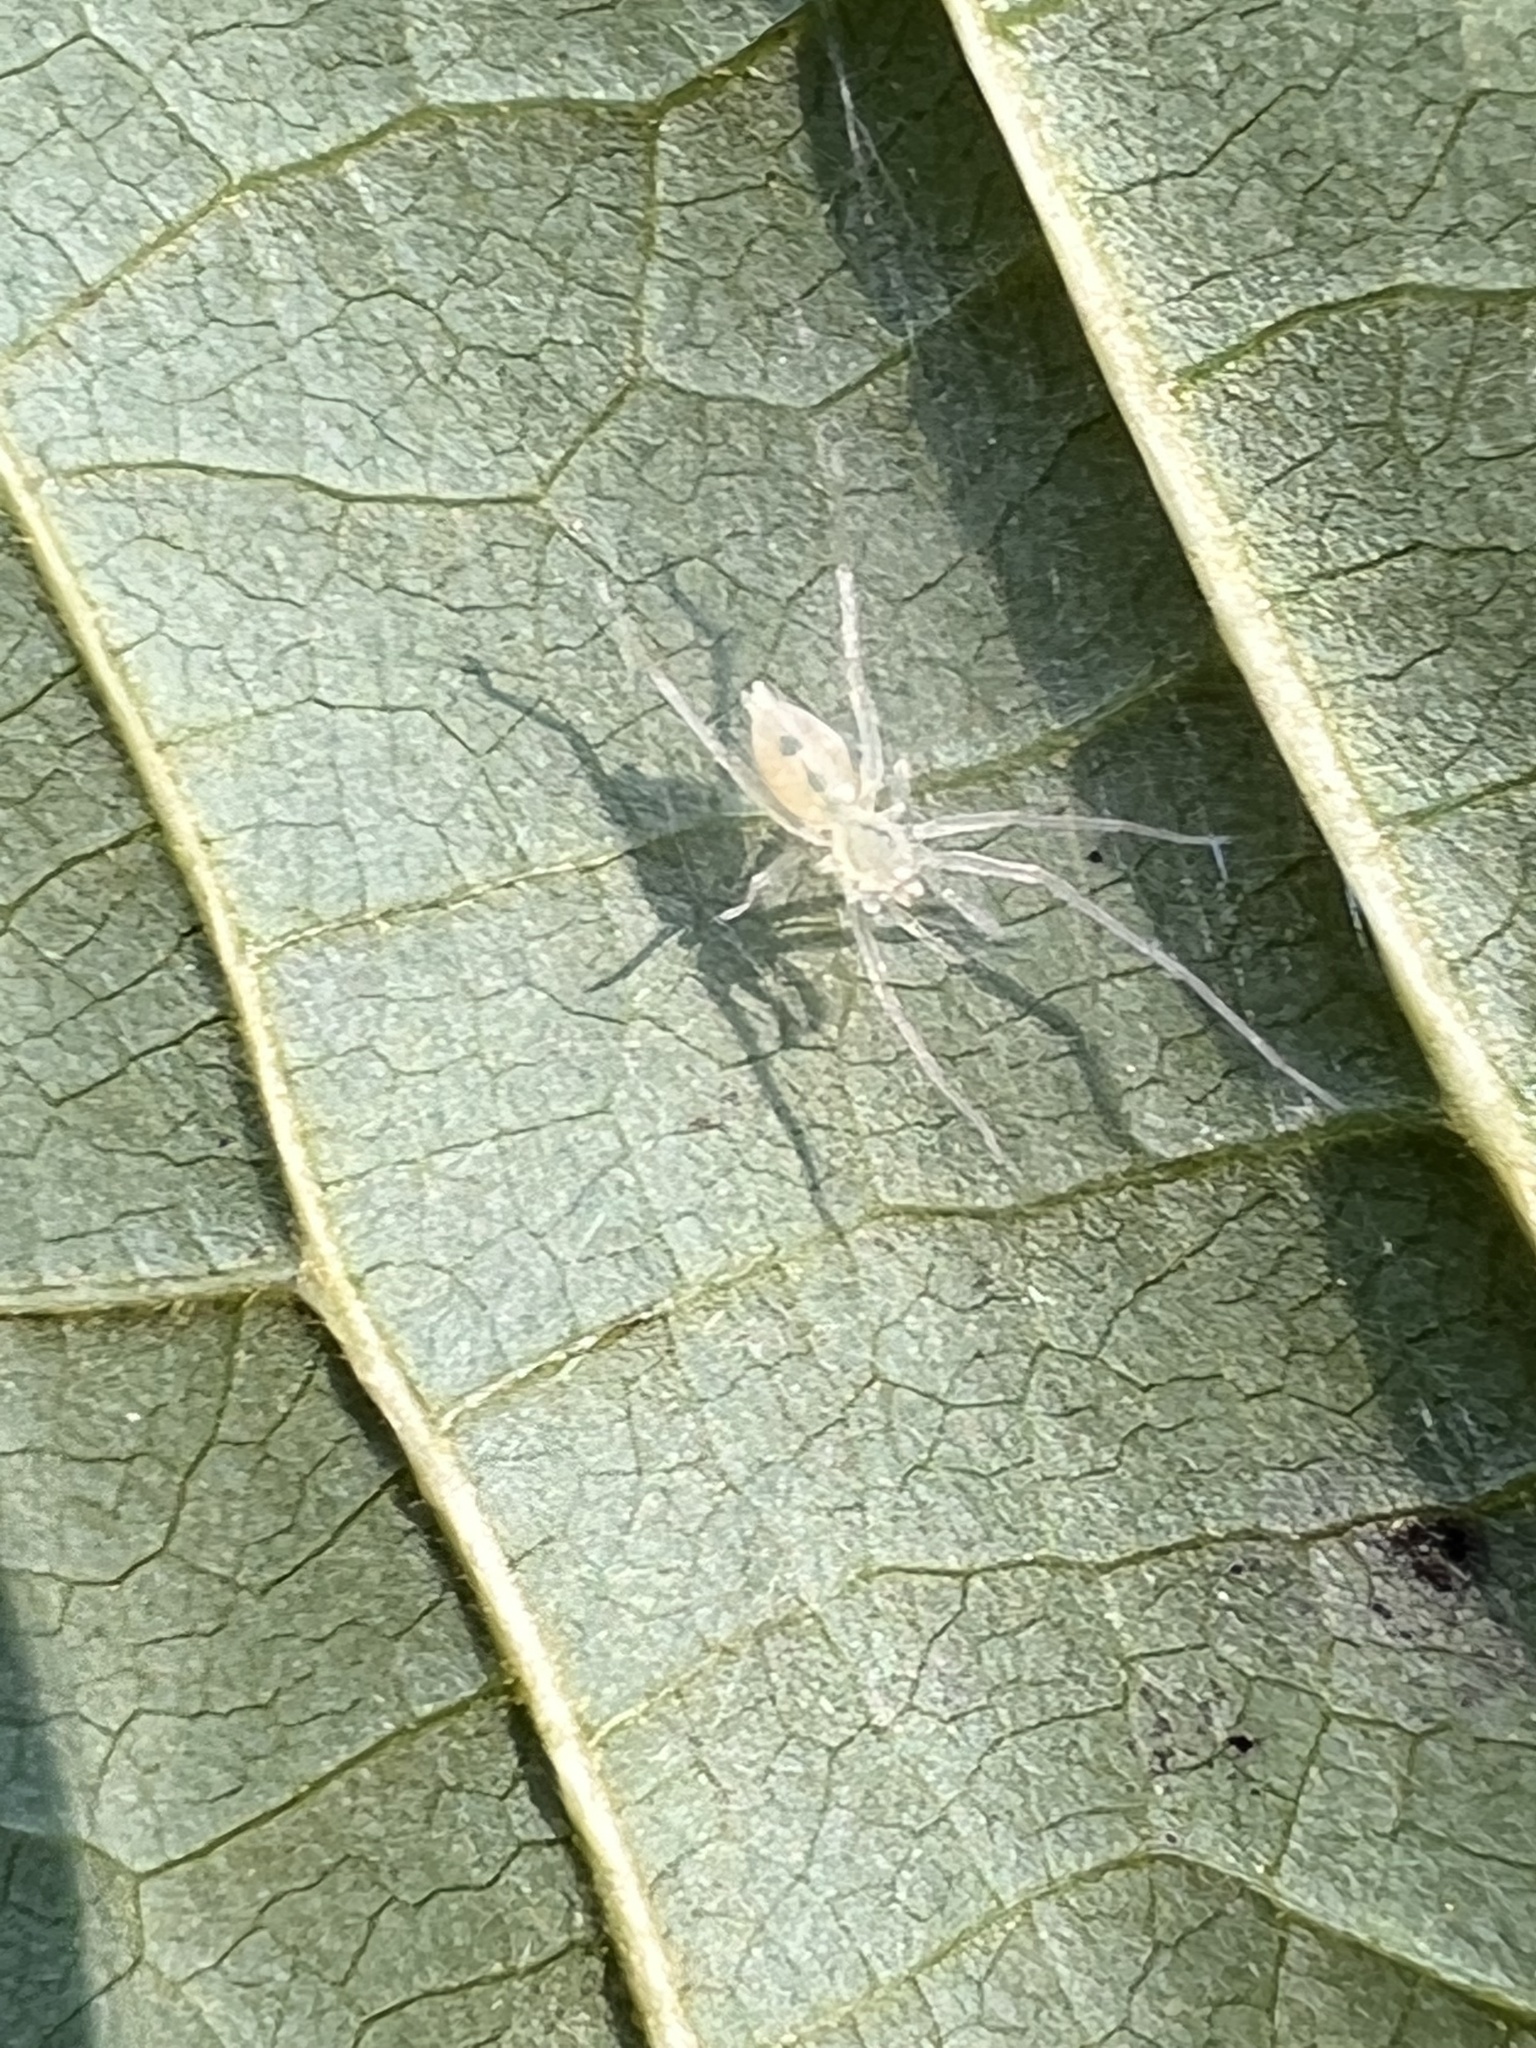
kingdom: Animalia
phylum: Arthropoda
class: Arachnida
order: Araneae
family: Anyphaenidae
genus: Wulfila
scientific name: Wulfila albens
